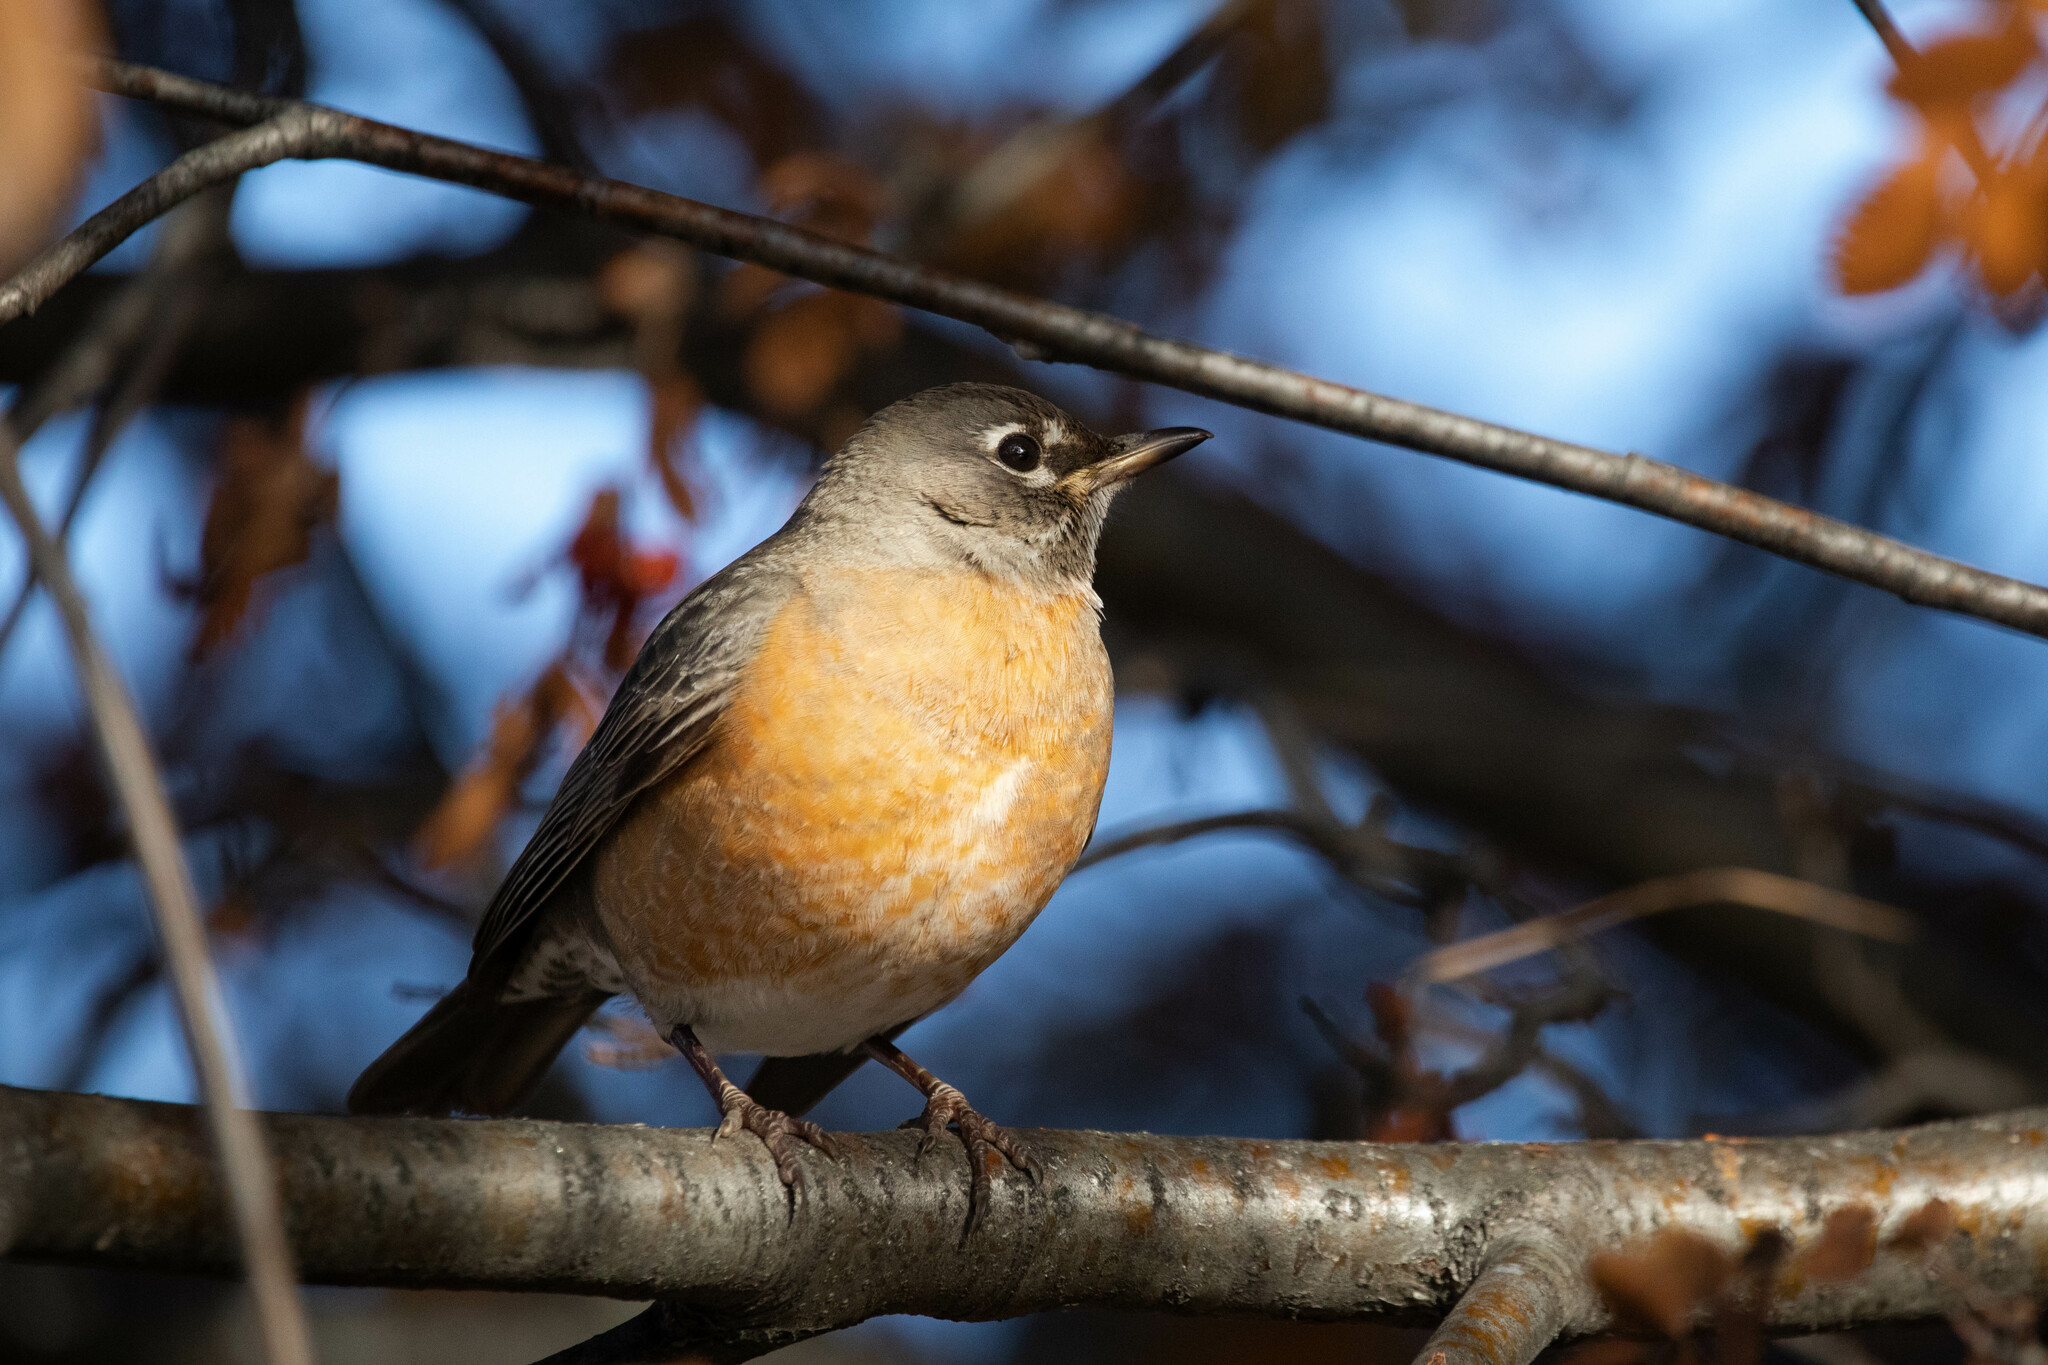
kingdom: Animalia
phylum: Chordata
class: Aves
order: Passeriformes
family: Turdidae
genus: Turdus
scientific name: Turdus migratorius
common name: American robin
